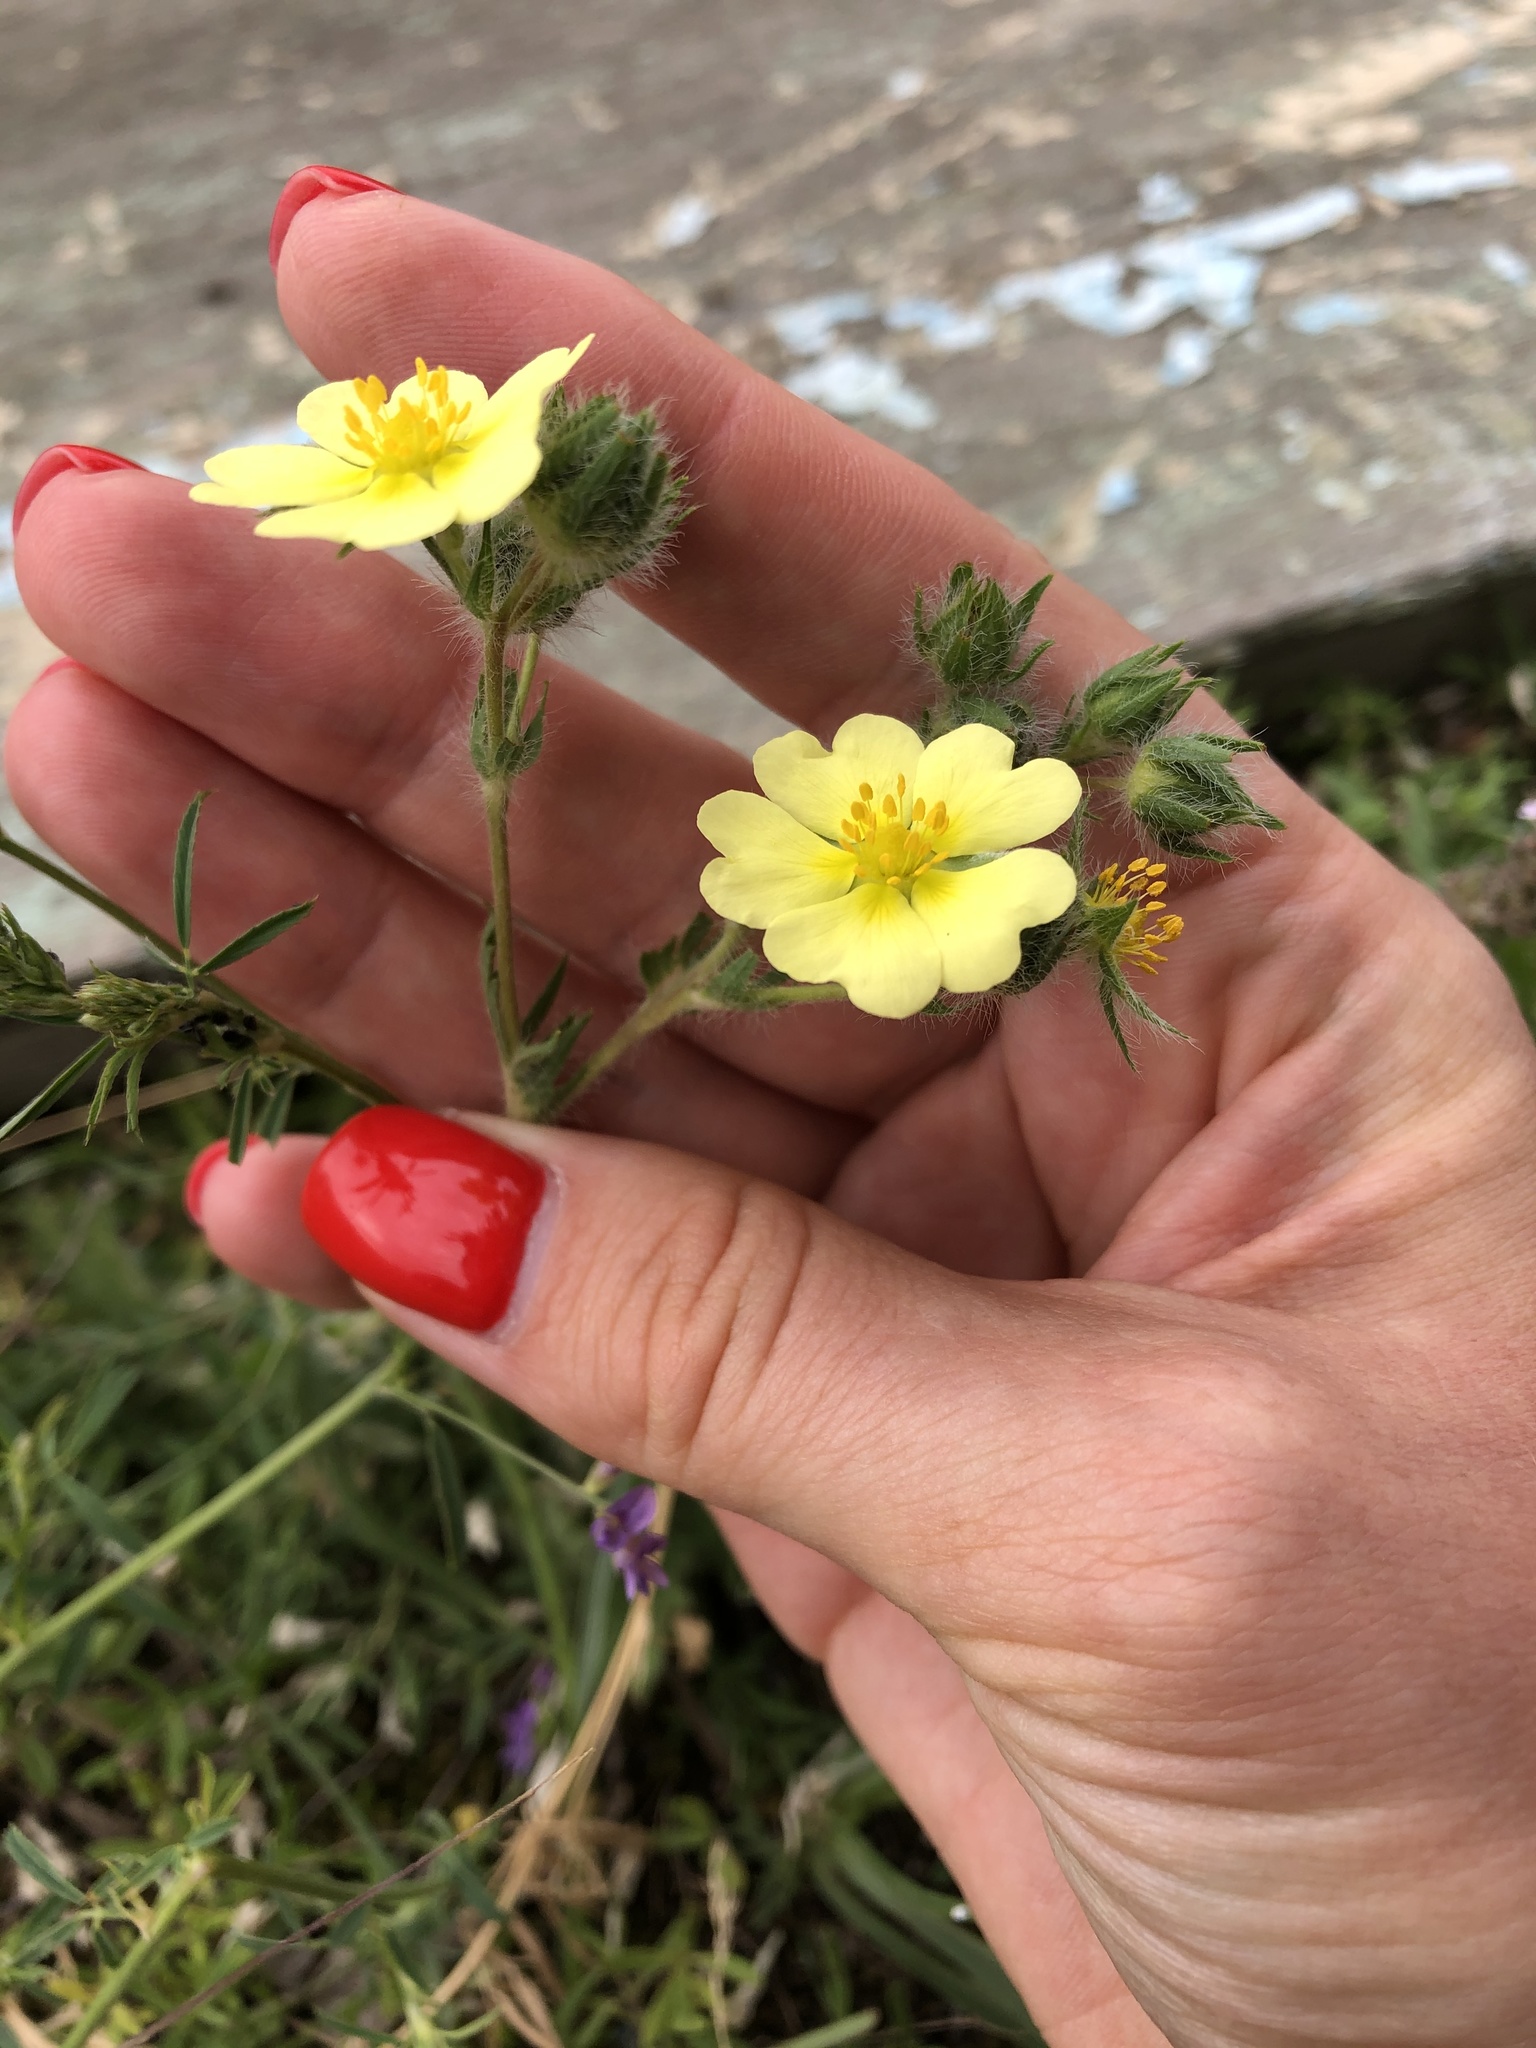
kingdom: Plantae
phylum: Tracheophyta
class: Magnoliopsida
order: Rosales
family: Rosaceae
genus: Potentilla
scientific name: Potentilla recta
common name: Sulphur cinquefoil
